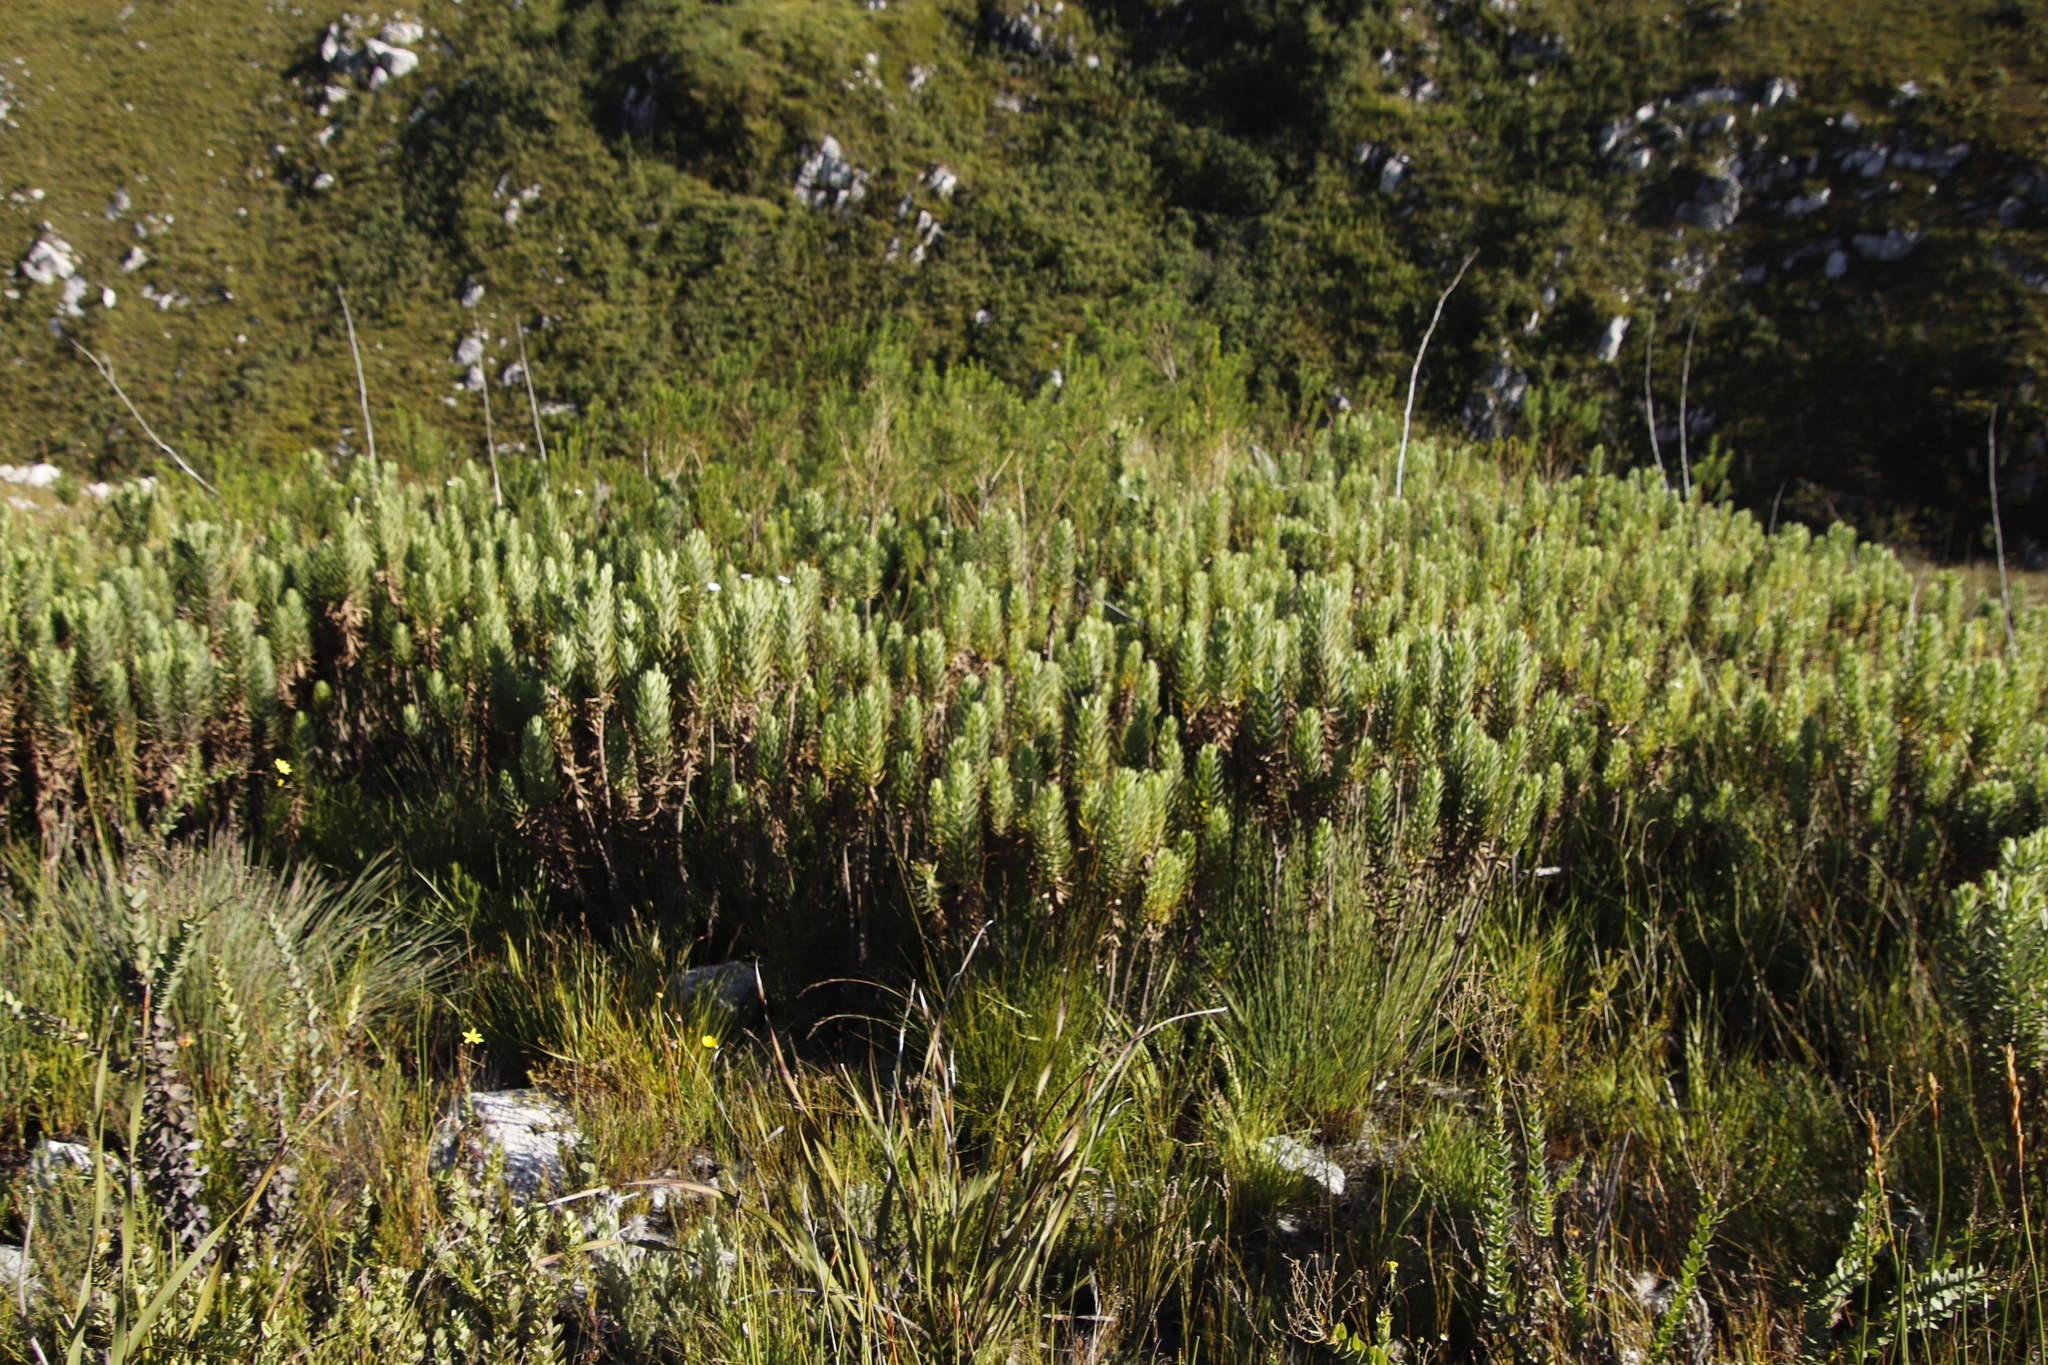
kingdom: Plantae
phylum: Tracheophyta
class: Magnoliopsida
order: Asterales
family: Asteraceae
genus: Osmitopsis
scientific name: Osmitopsis asteriscoides
